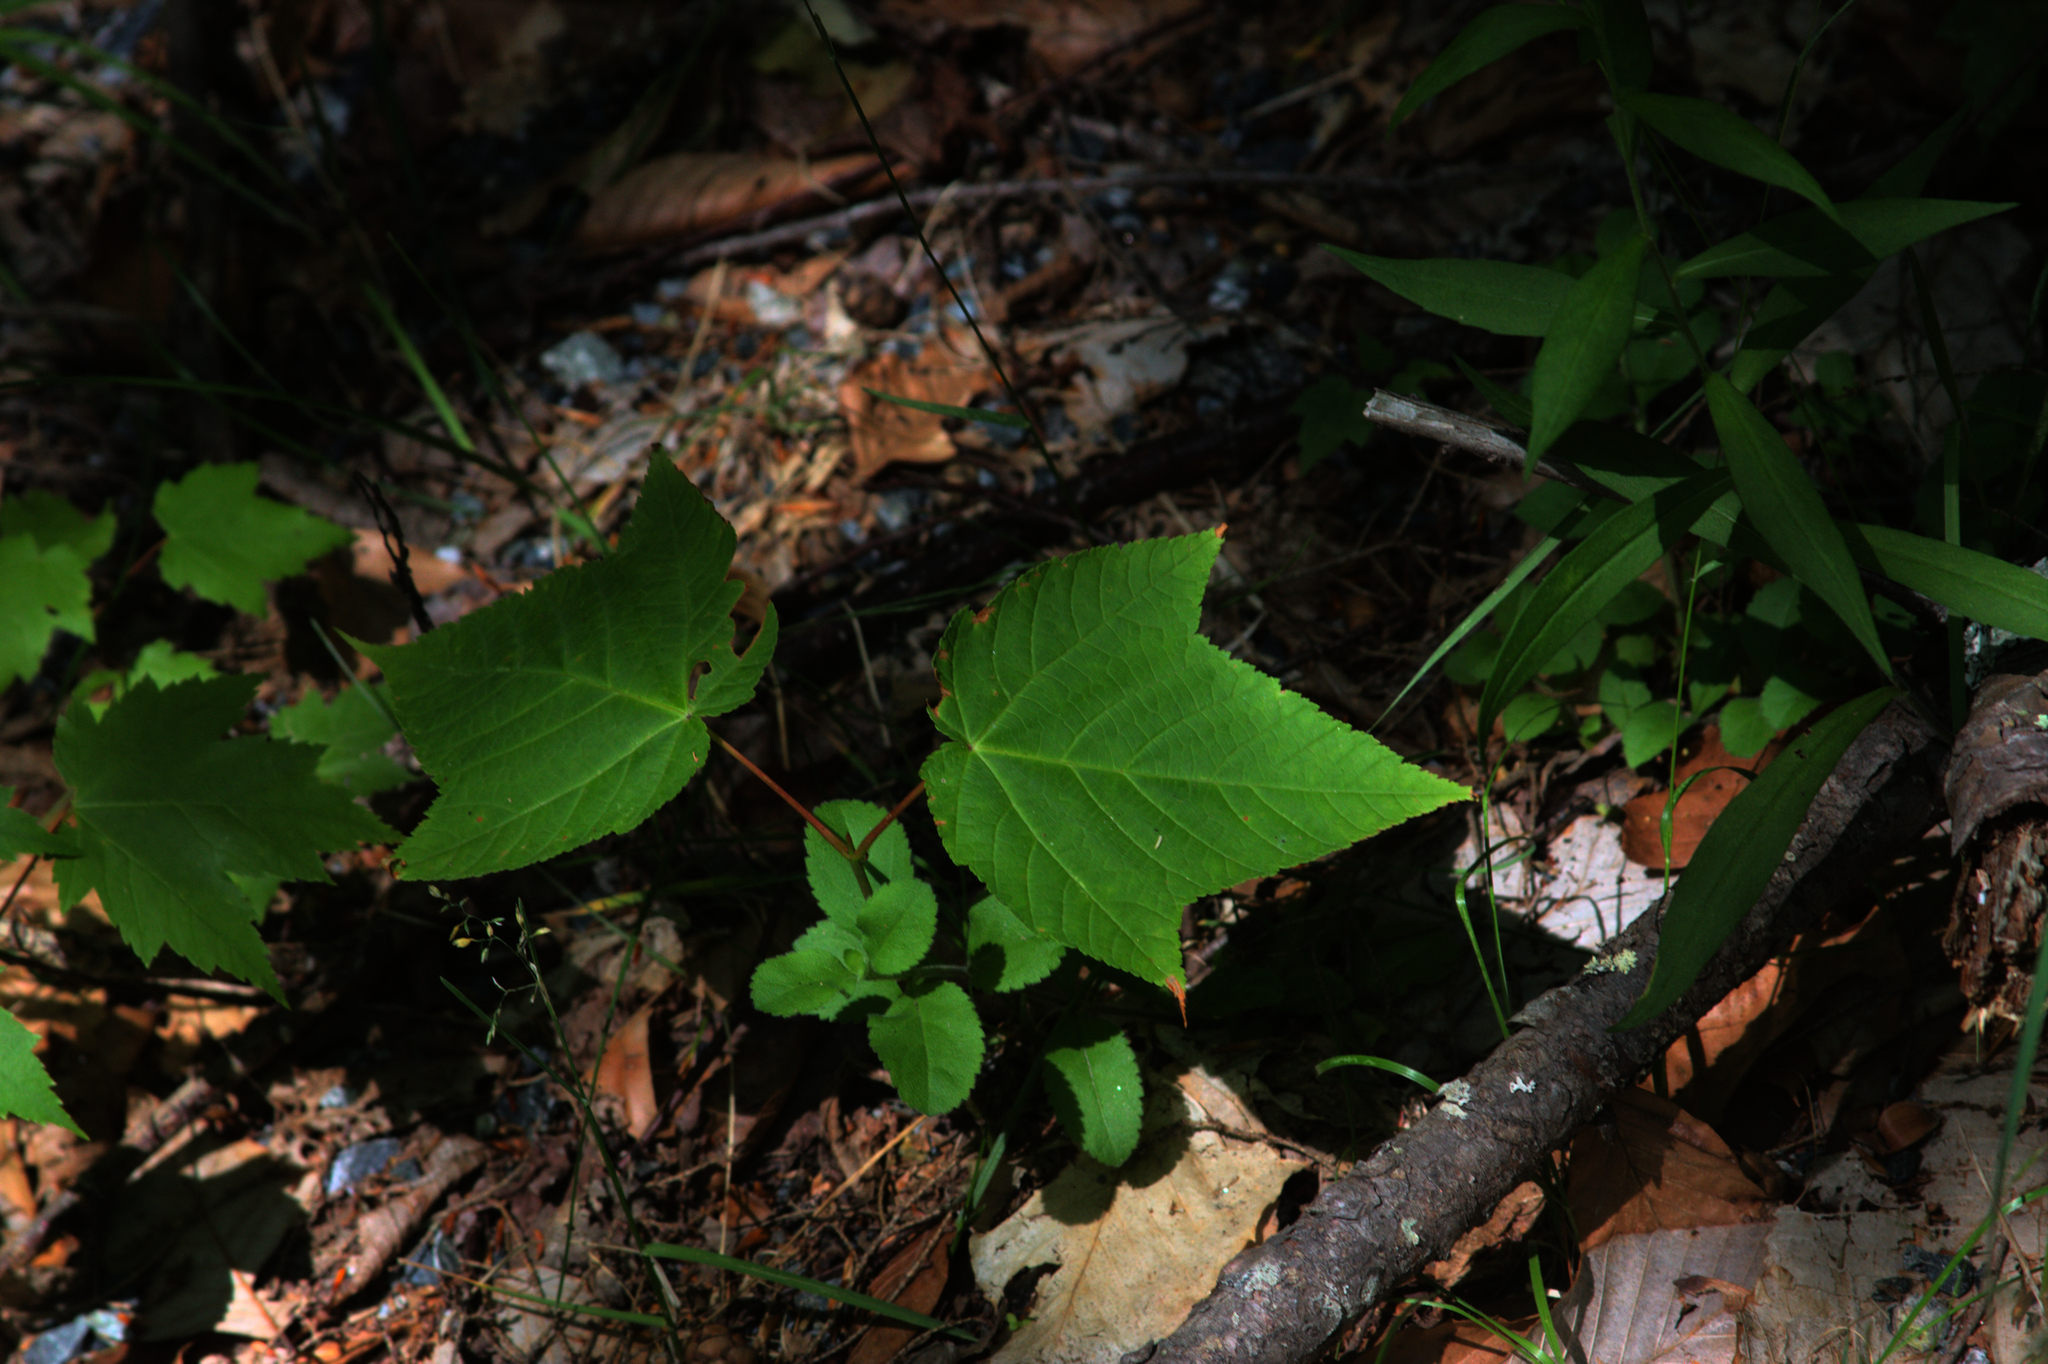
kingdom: Plantae
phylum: Tracheophyta
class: Magnoliopsida
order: Sapindales
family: Sapindaceae
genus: Acer
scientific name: Acer pensylvanicum
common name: Moosewood
